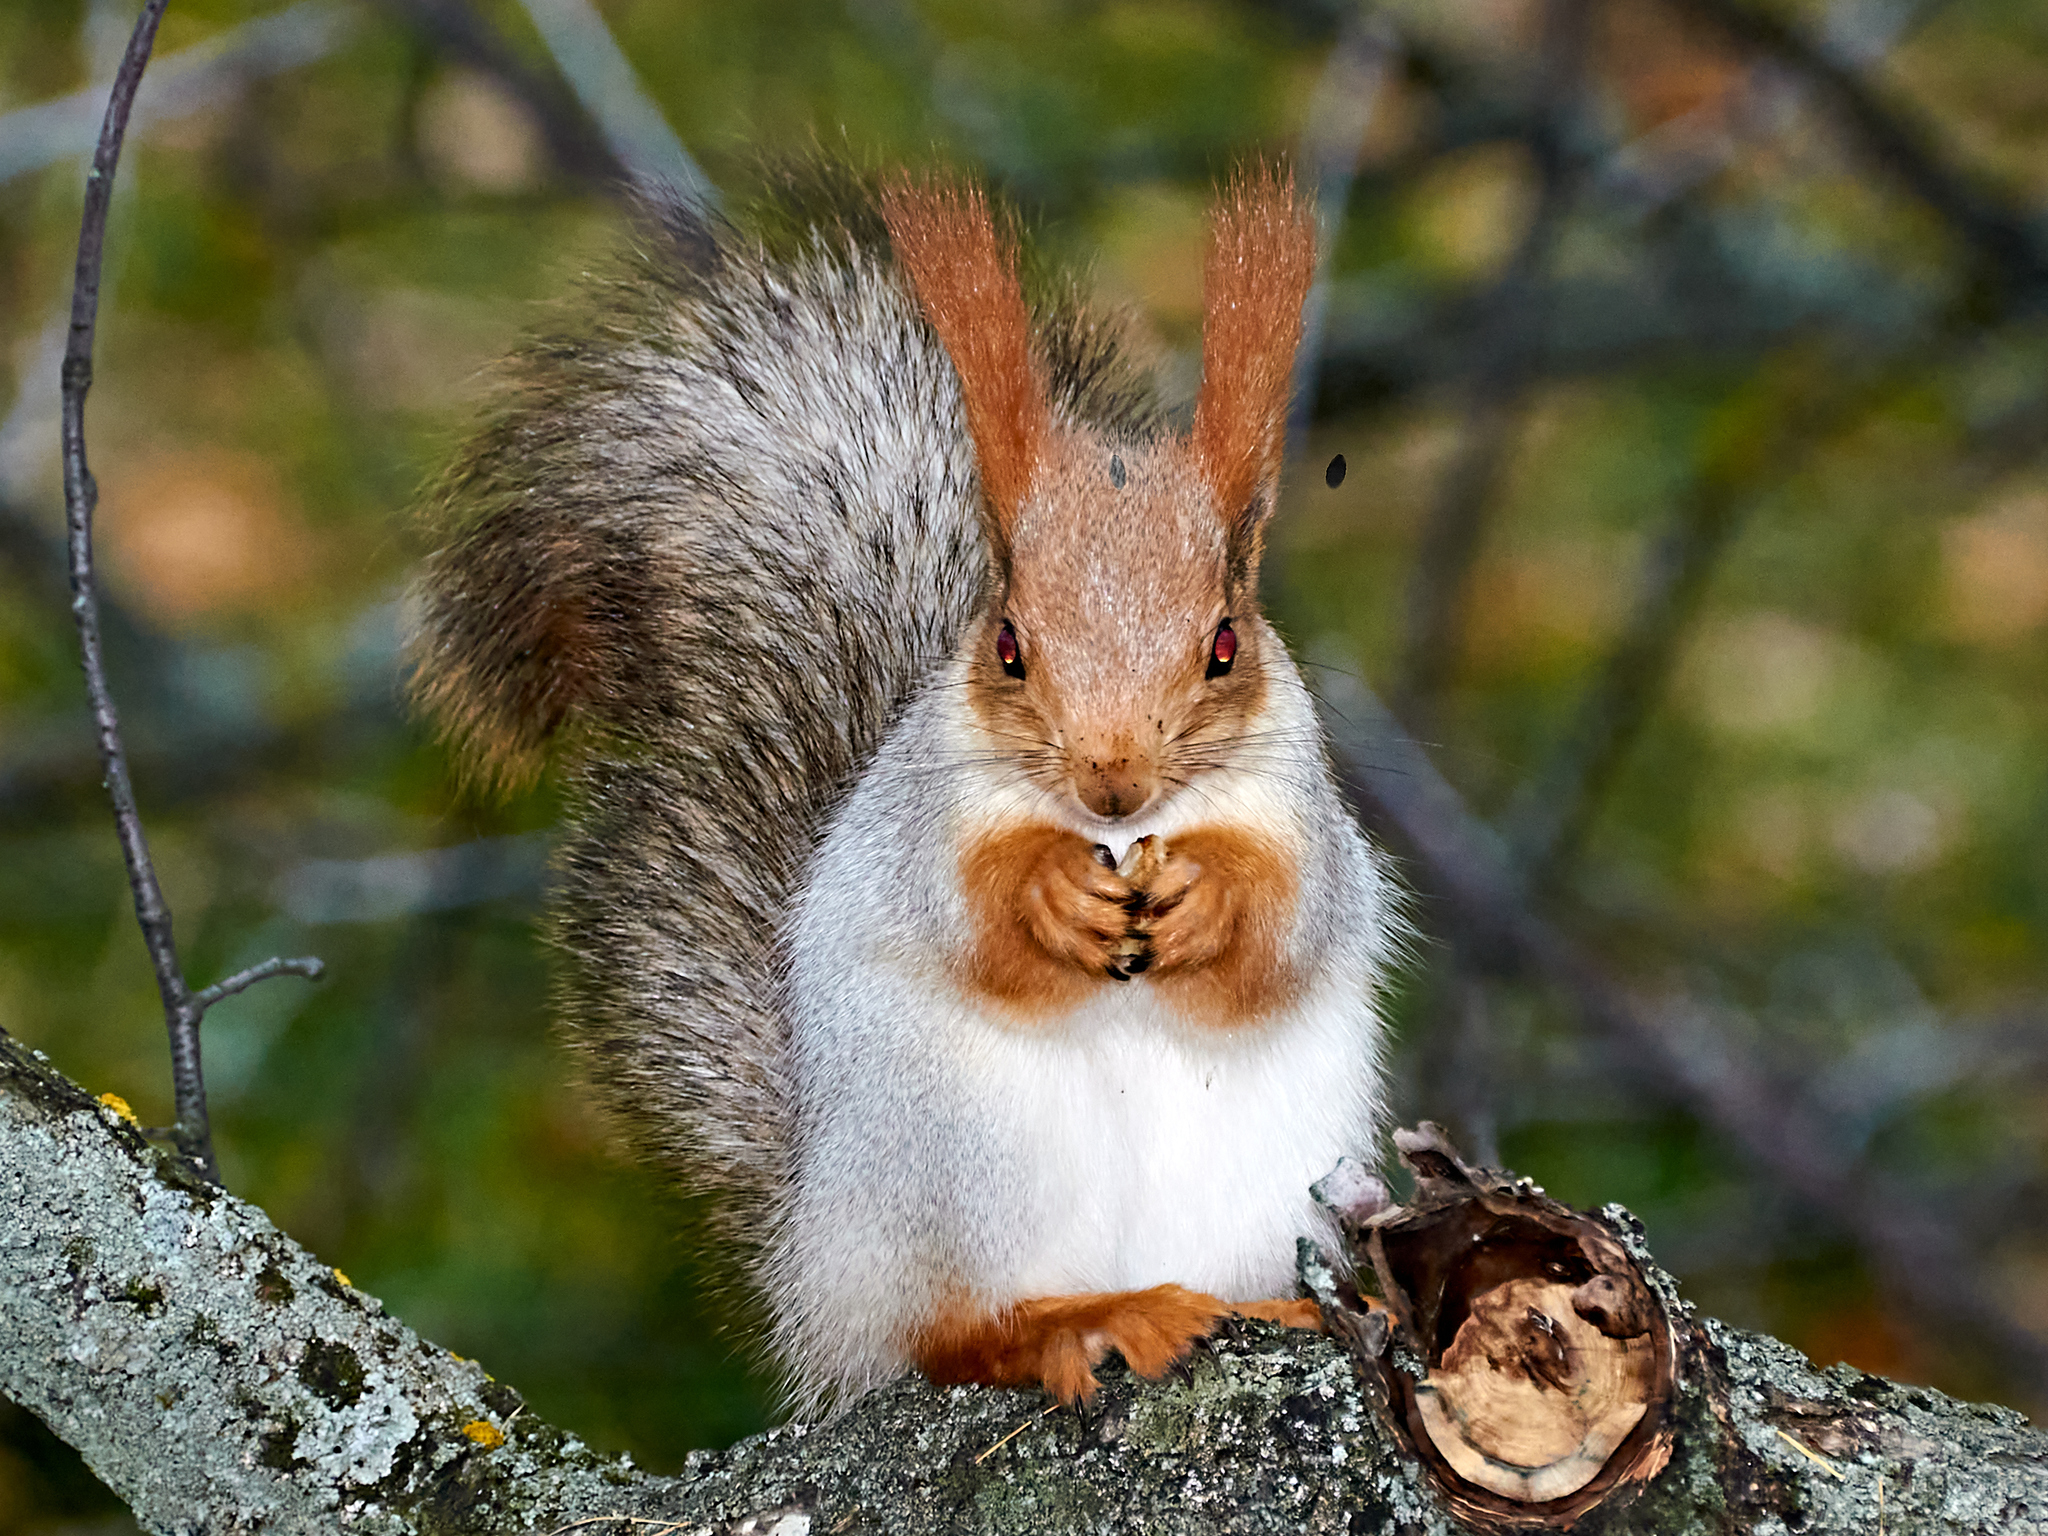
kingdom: Animalia
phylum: Chordata
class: Mammalia
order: Rodentia
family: Sciuridae
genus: Sciurus
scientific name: Sciurus vulgaris
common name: Eurasian red squirrel
